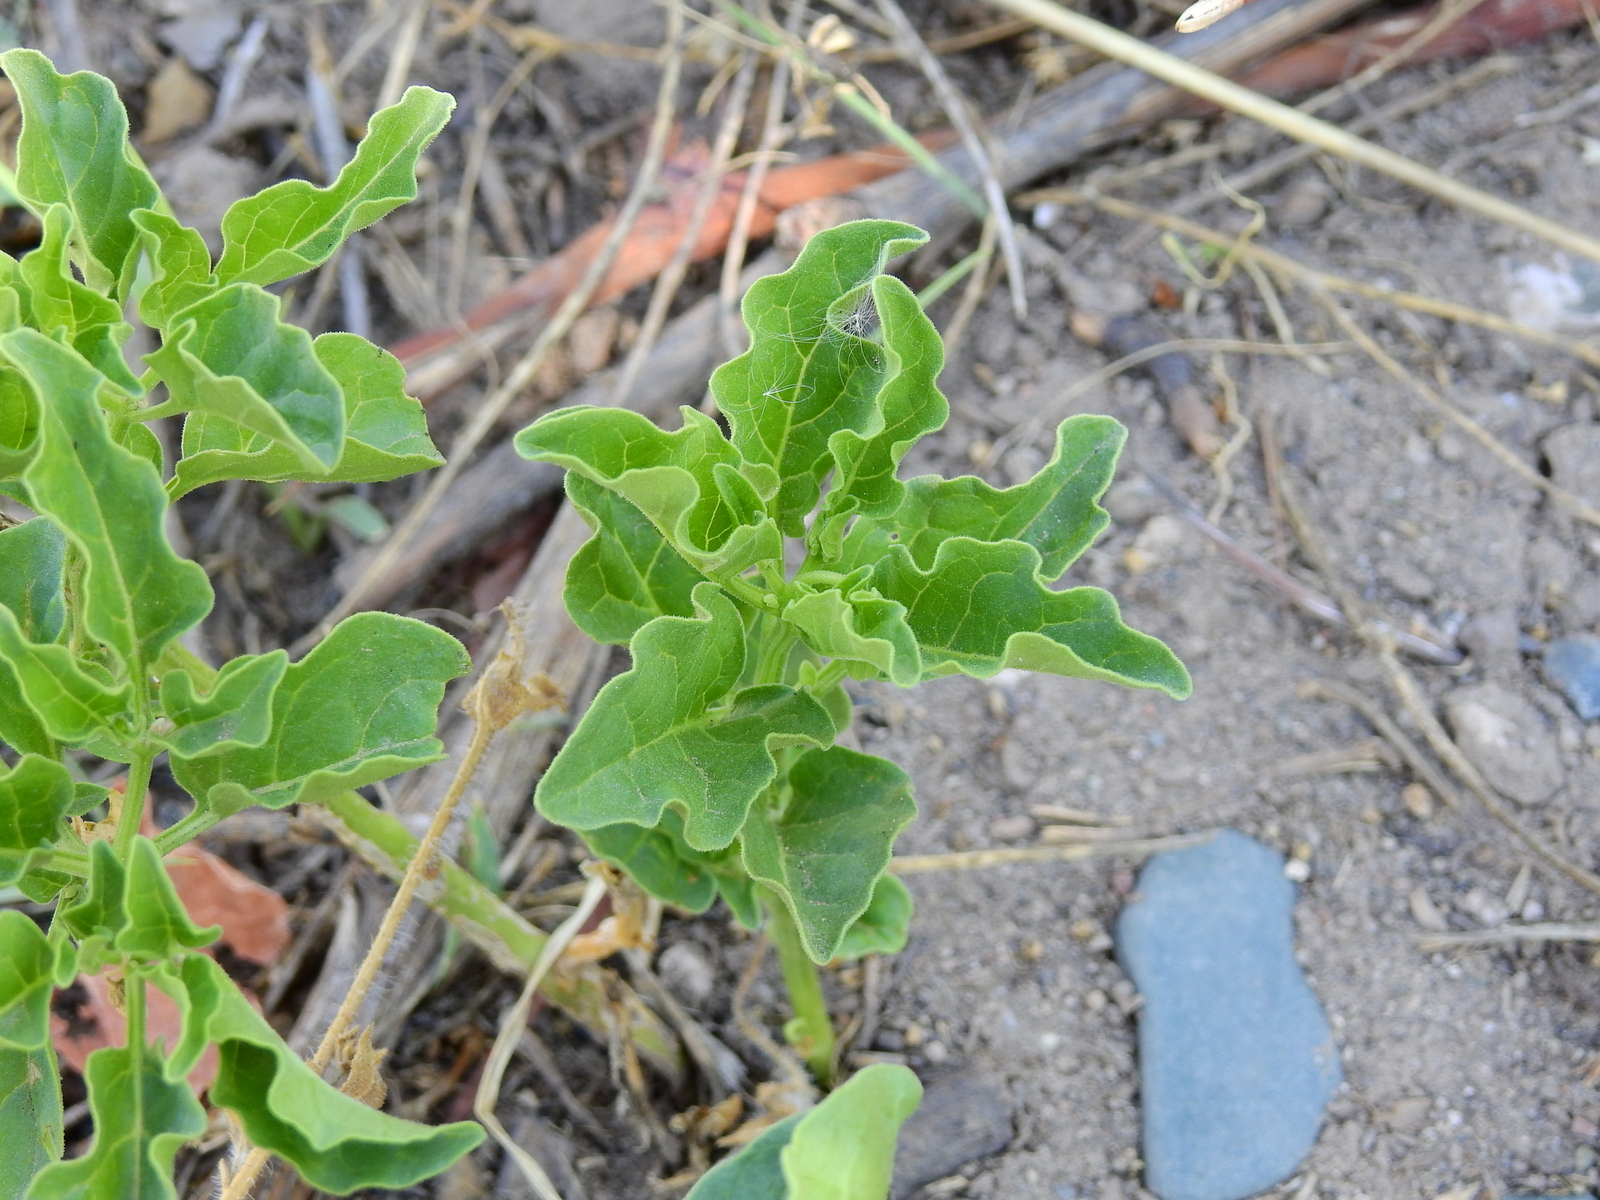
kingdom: Plantae
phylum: Tracheophyta
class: Magnoliopsida
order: Solanales
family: Solanaceae
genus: Physalis
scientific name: Physalis viscosa
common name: Stellate ground-cherry
